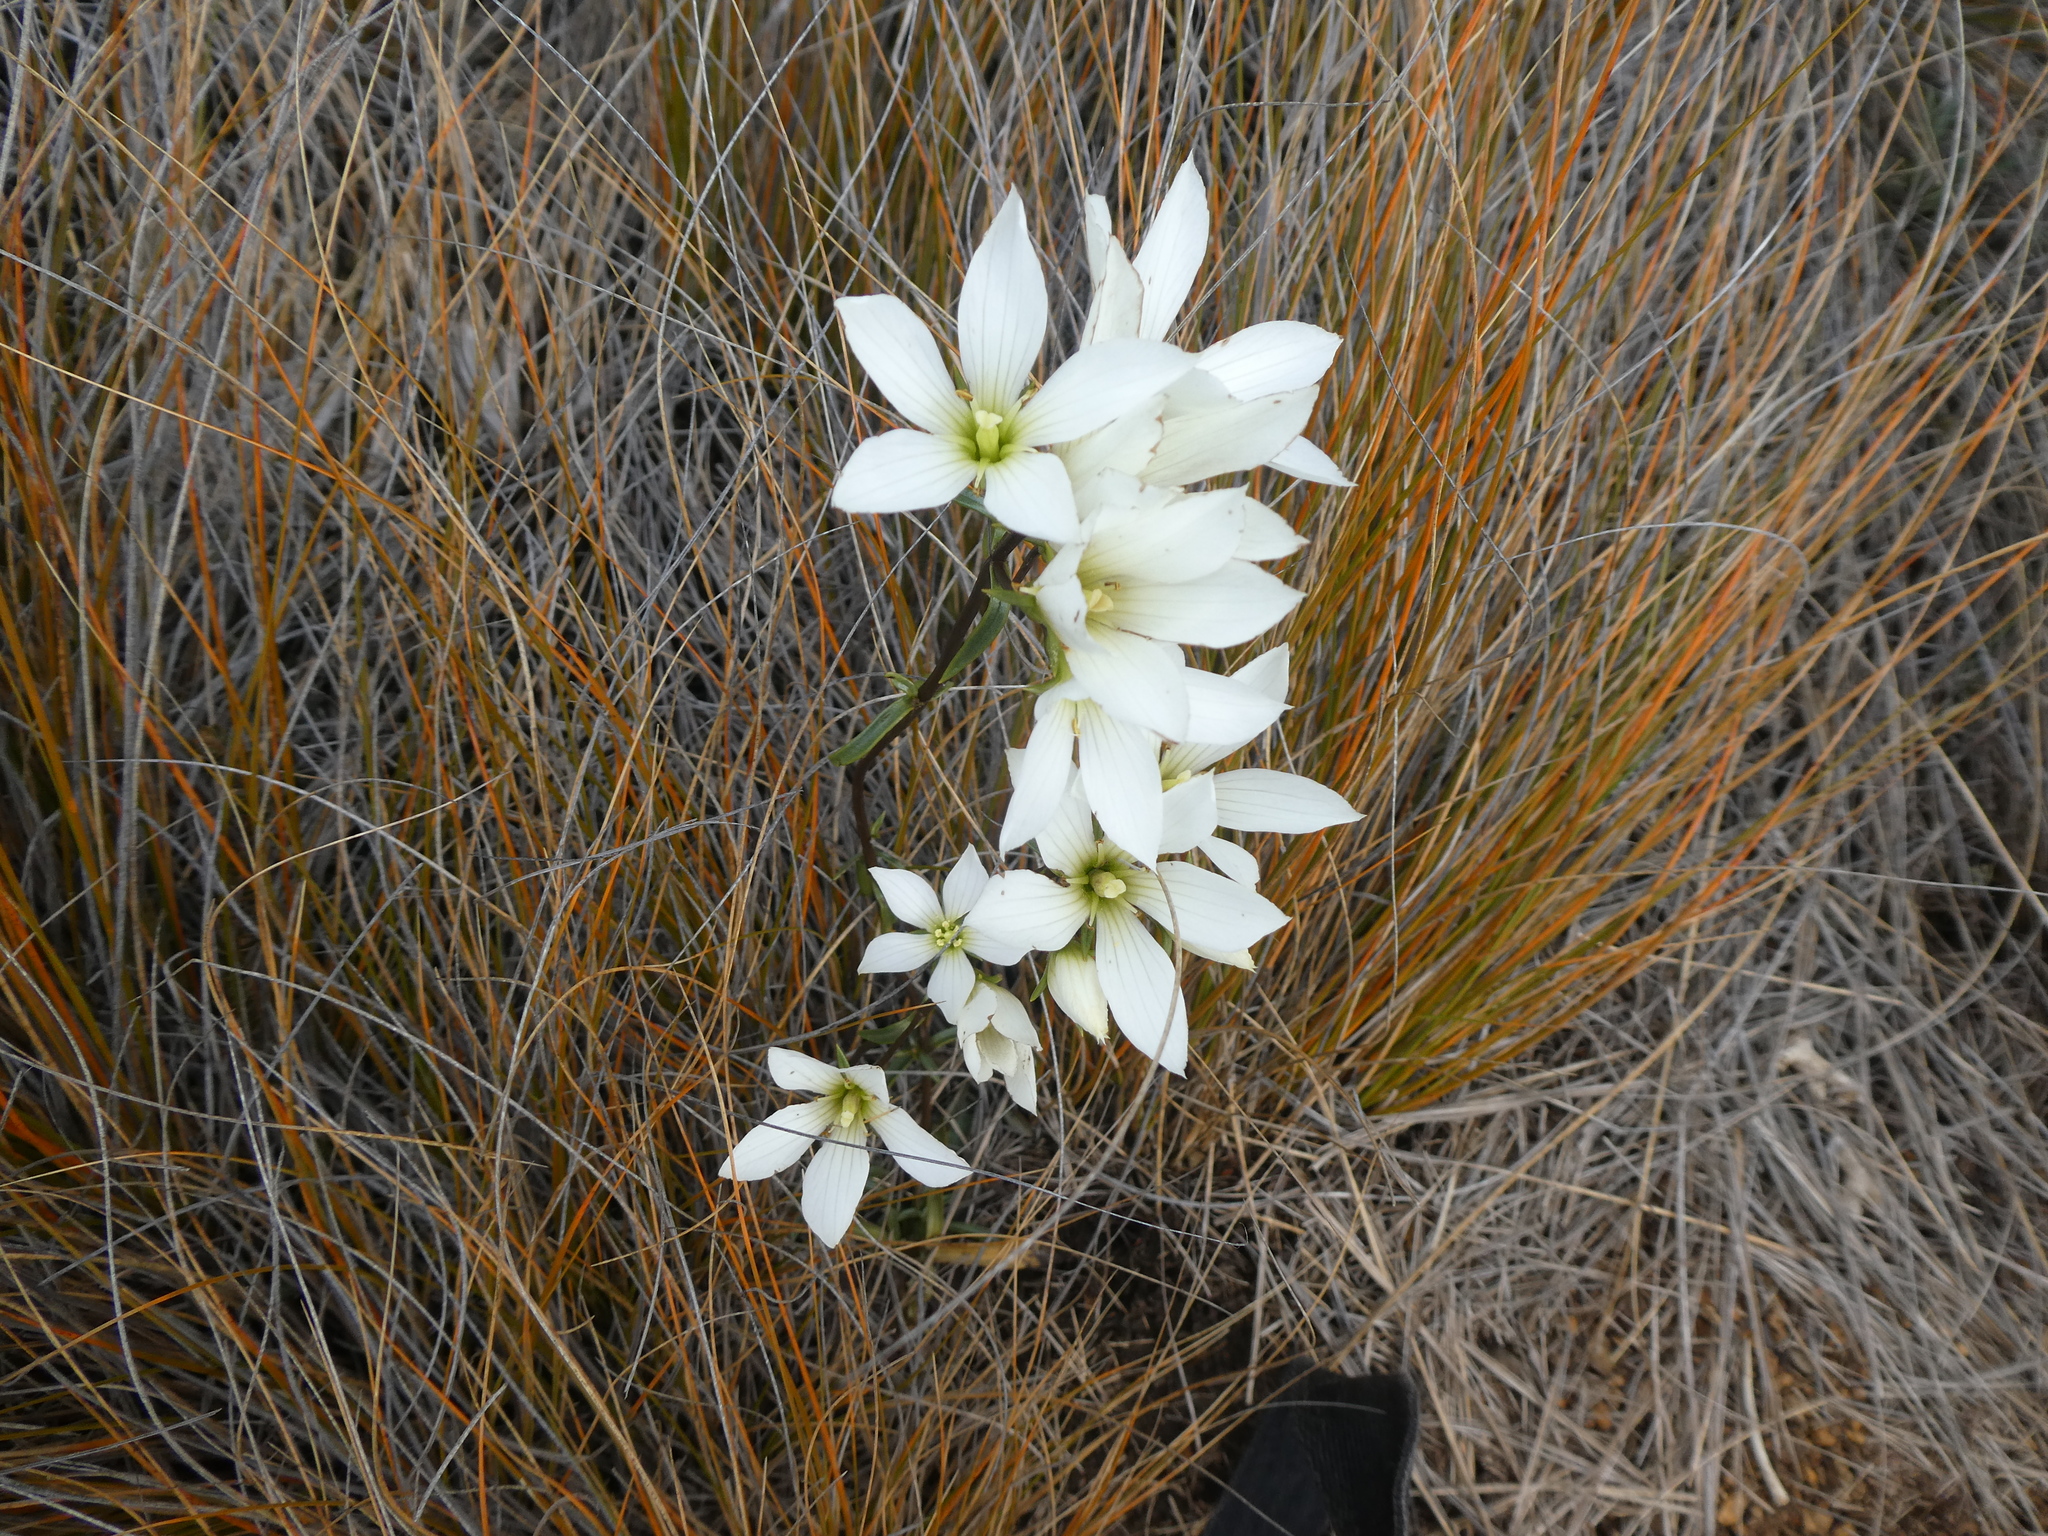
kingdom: Plantae
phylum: Tracheophyta
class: Magnoliopsida
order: Gentianales
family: Gentianaceae
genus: Gentianella
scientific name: Gentianella stellata
